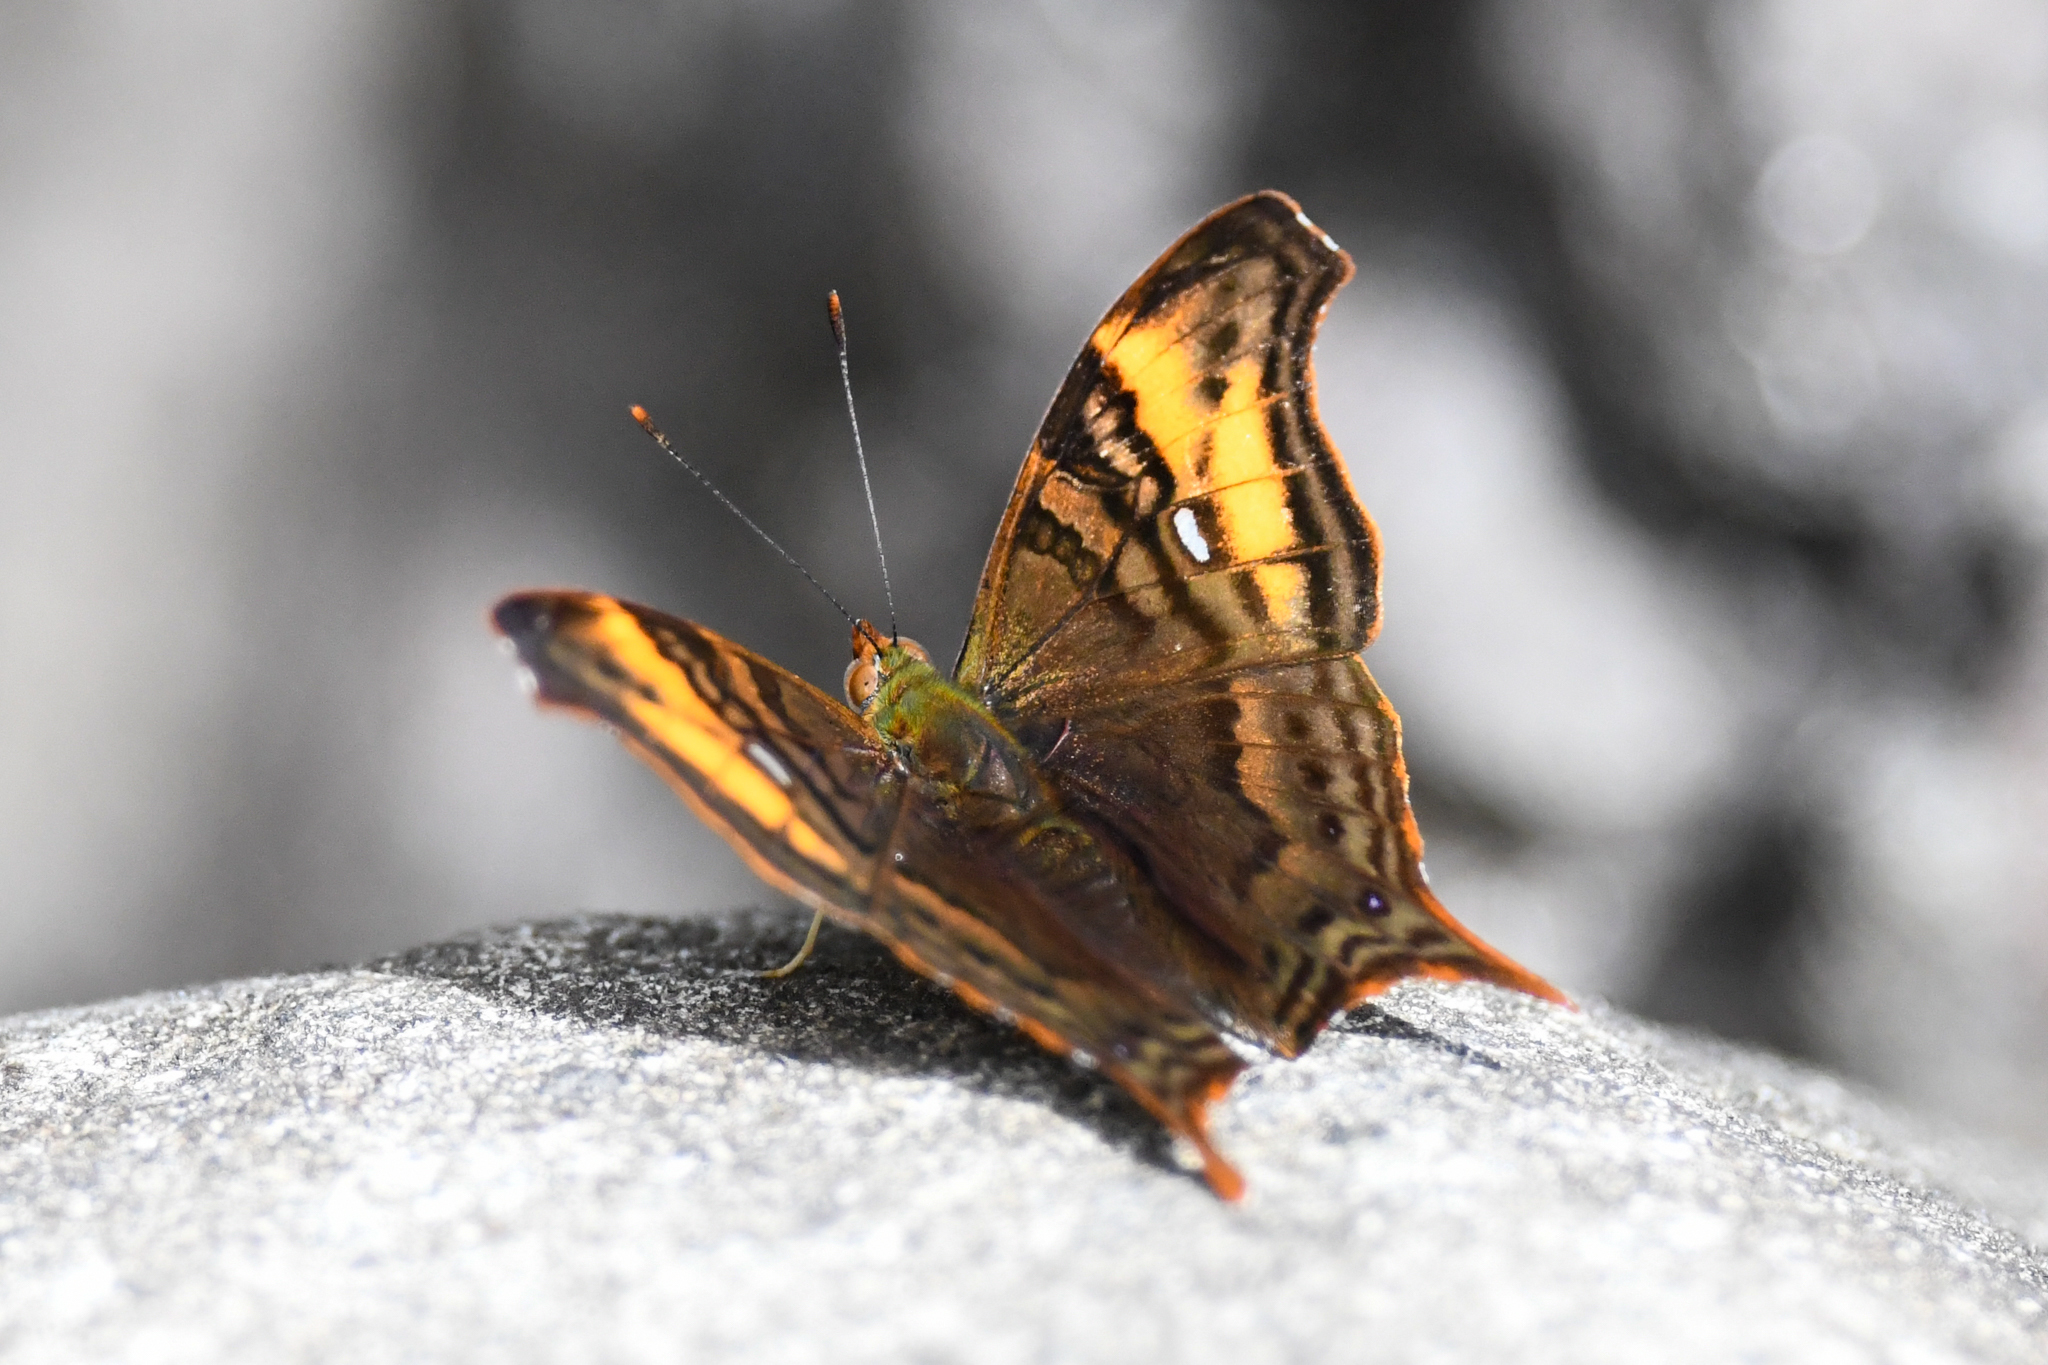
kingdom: Animalia
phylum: Arthropoda
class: Insecta
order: Lepidoptera
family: Nymphalidae
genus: Hypanartia
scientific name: Hypanartia dione
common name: Banded mapwing
